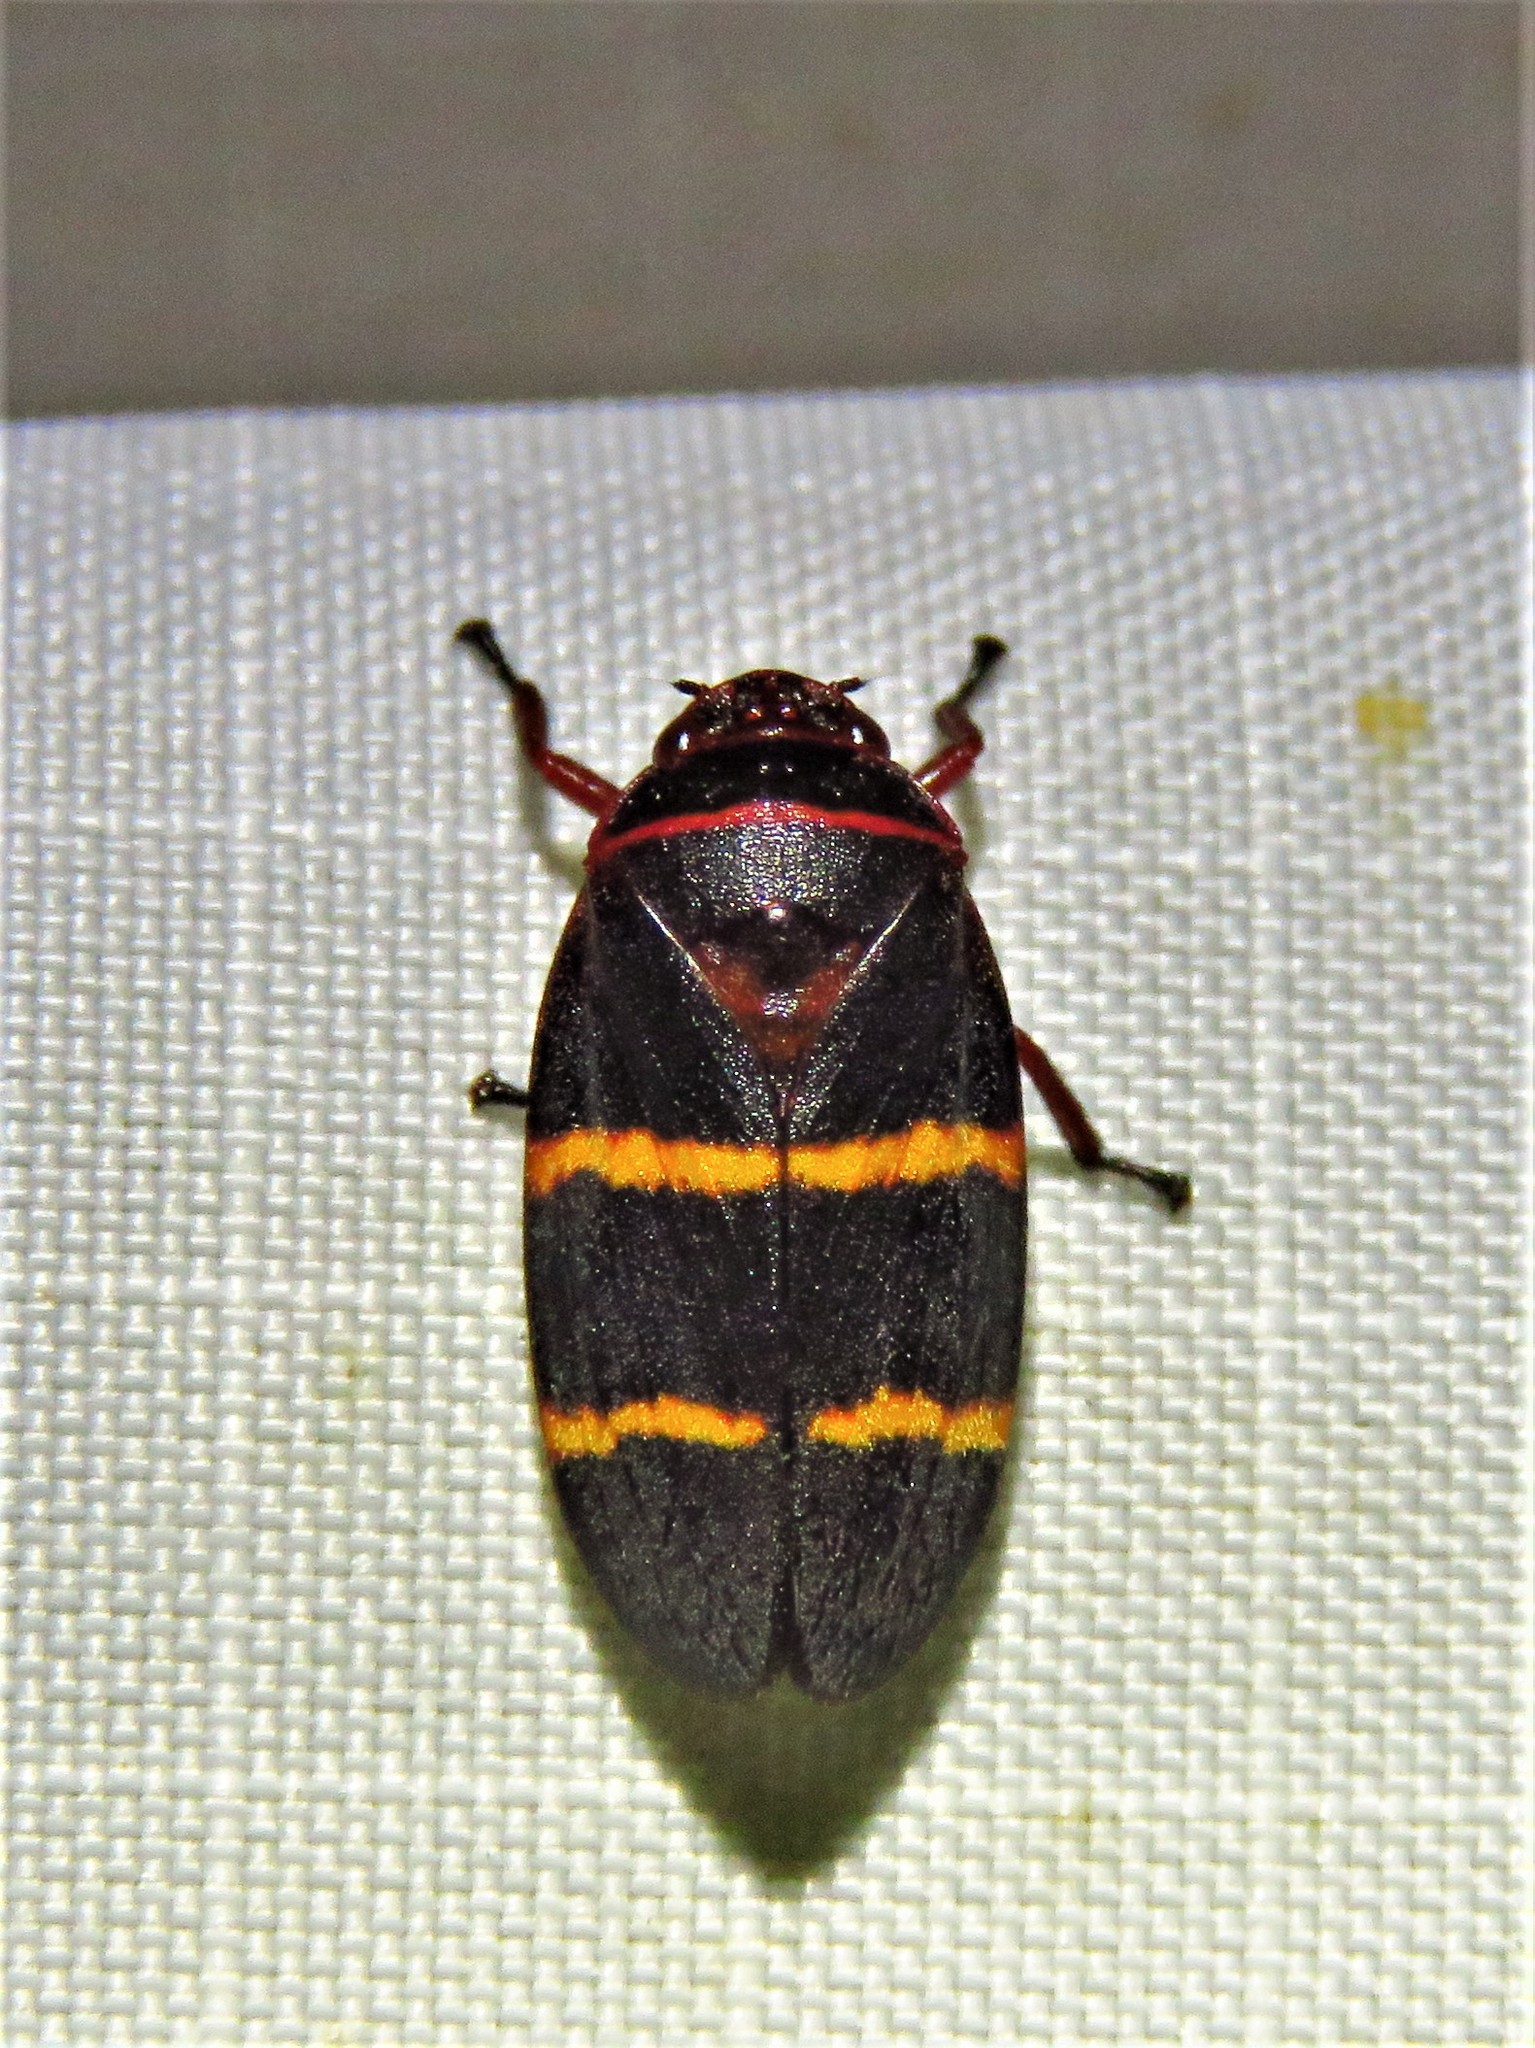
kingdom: Animalia
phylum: Arthropoda
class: Insecta
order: Hemiptera
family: Cercopidae
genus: Prosapia
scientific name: Prosapia bicincta
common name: Twolined spittlebug
